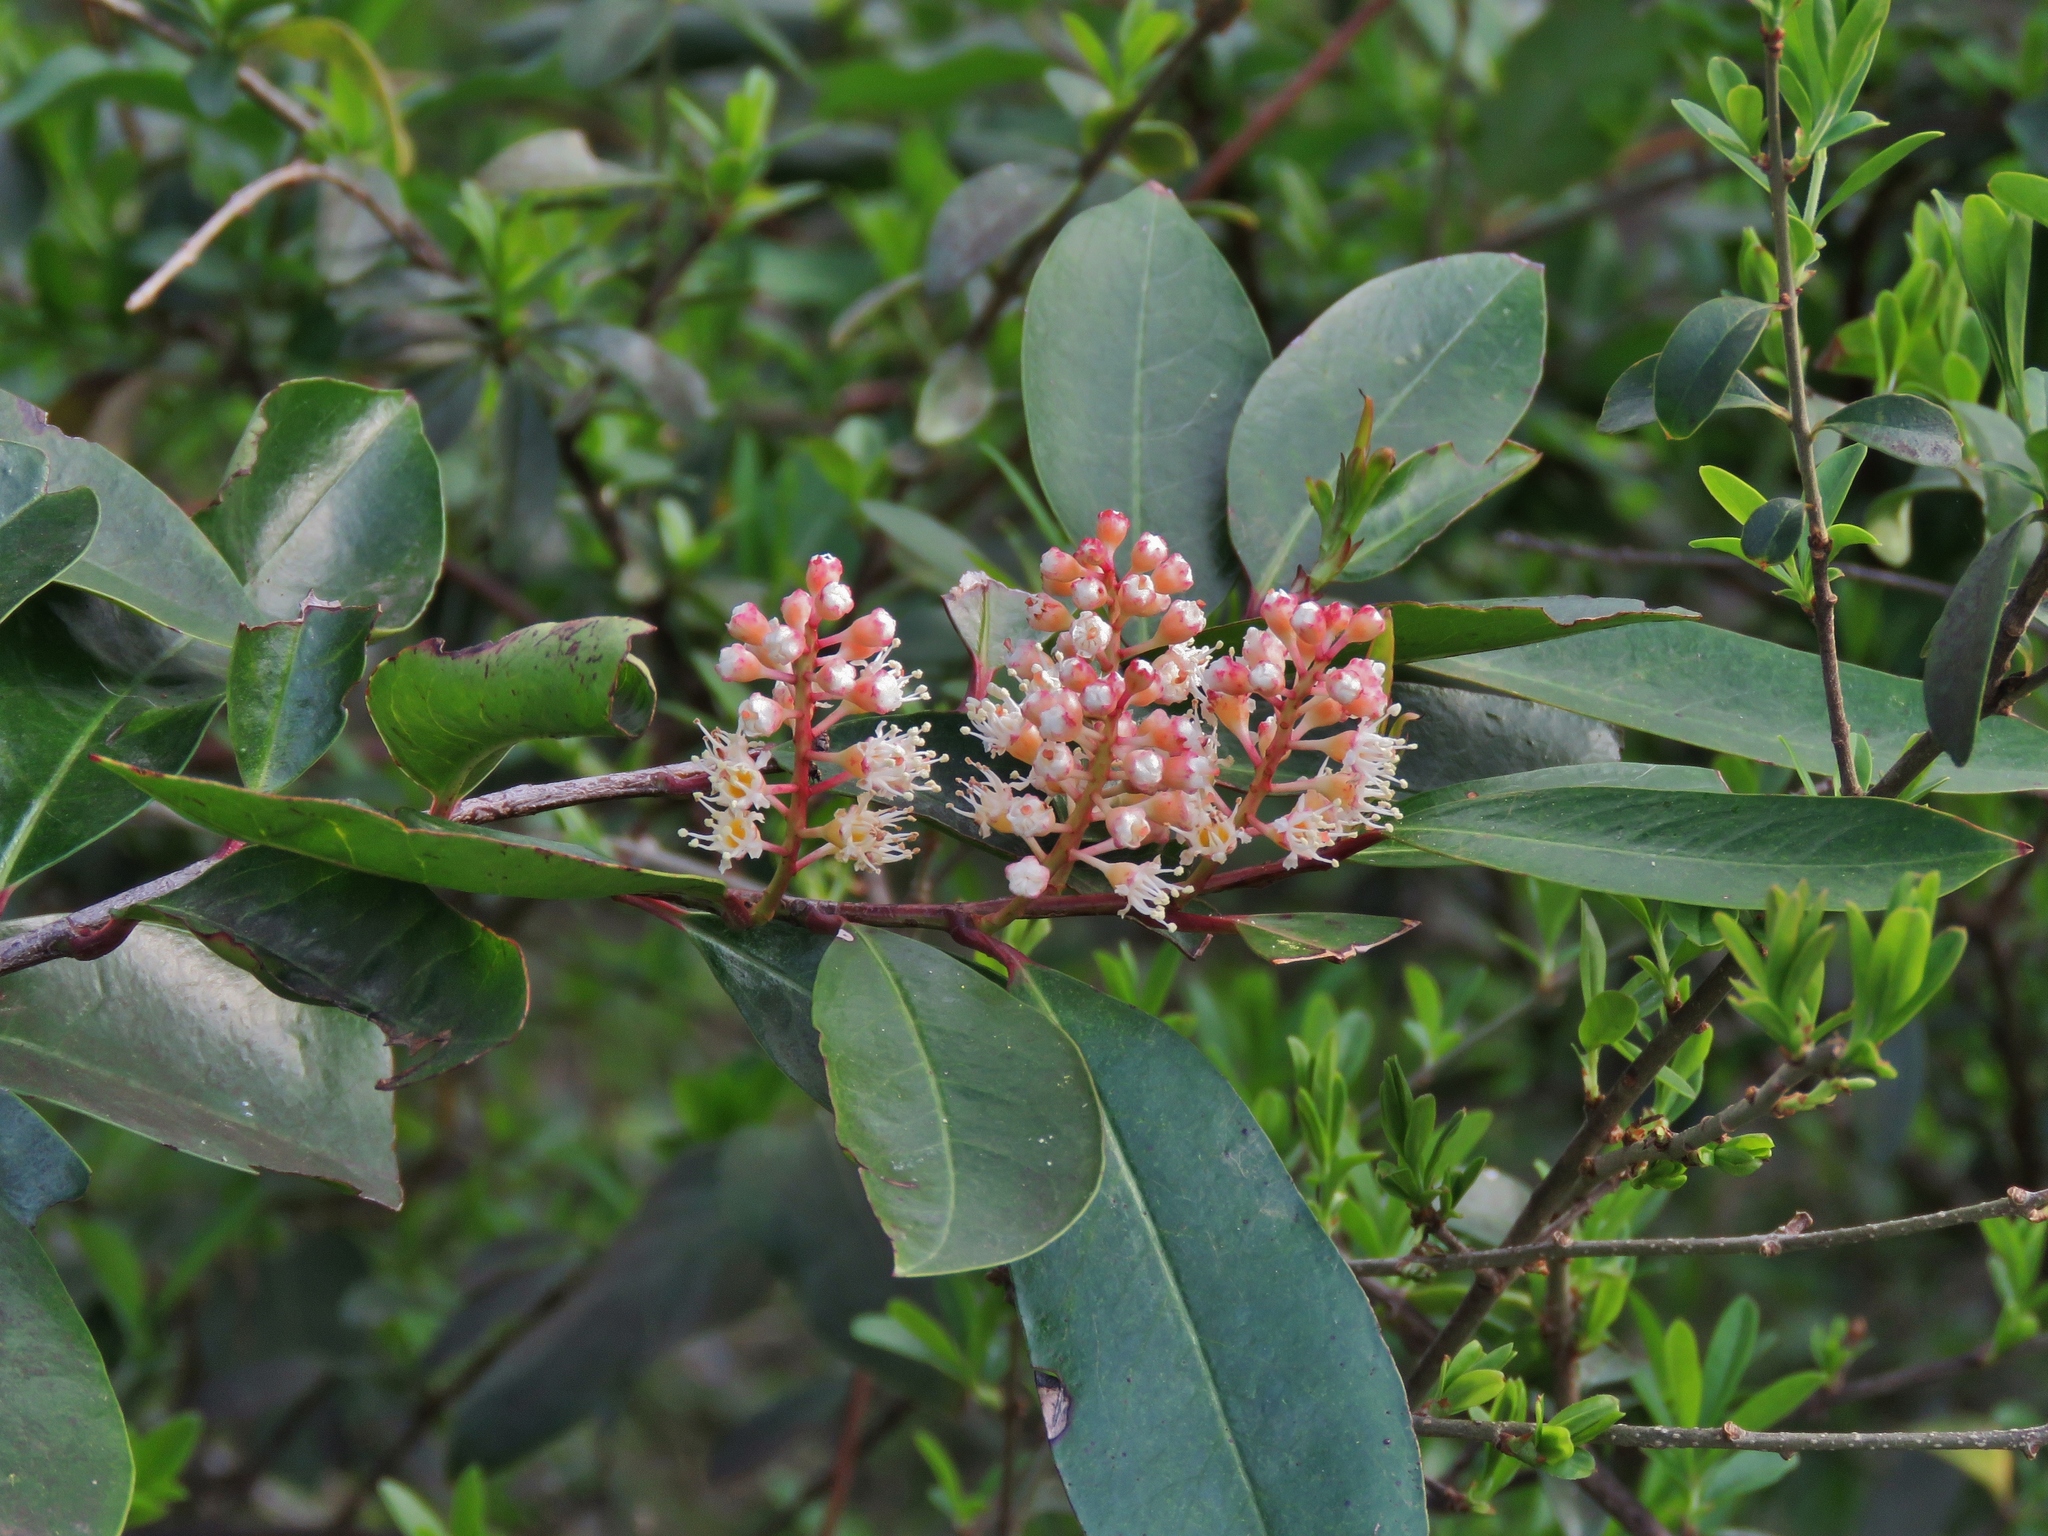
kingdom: Plantae
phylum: Tracheophyta
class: Magnoliopsida
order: Rosales
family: Rosaceae
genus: Prunus
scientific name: Prunus caroliniana
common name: Carolina laurel cherry
